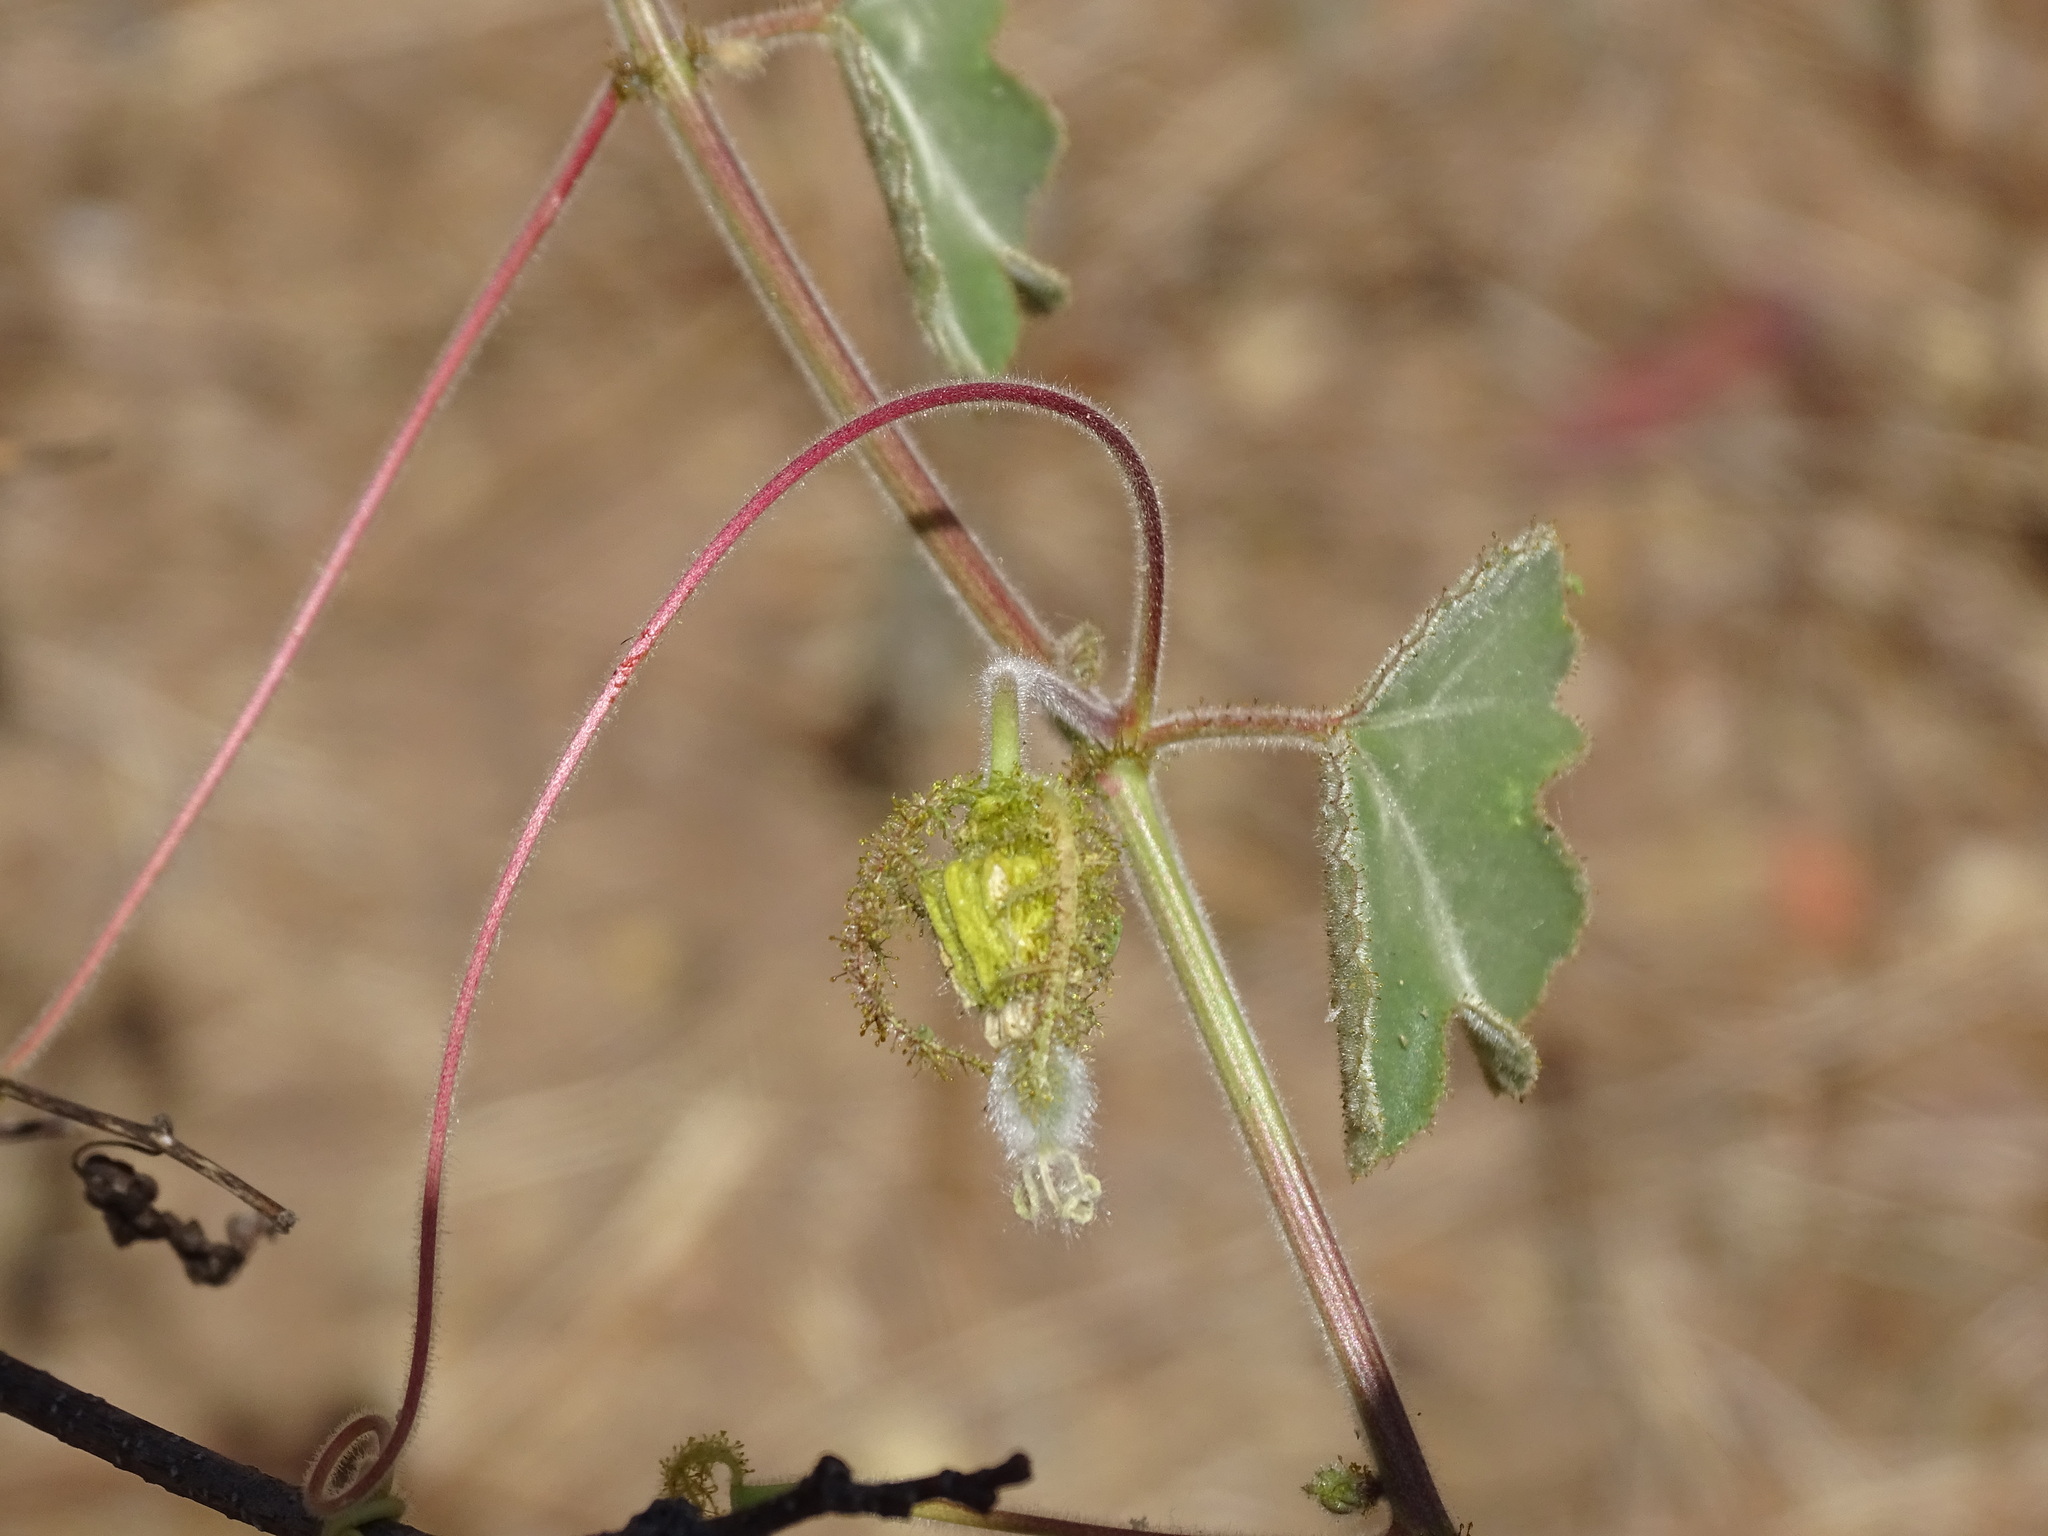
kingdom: Plantae
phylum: Tracheophyta
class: Magnoliopsida
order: Malpighiales
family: Passifloraceae
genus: Passiflora
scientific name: Passiflora arida
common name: Desert passionflower
